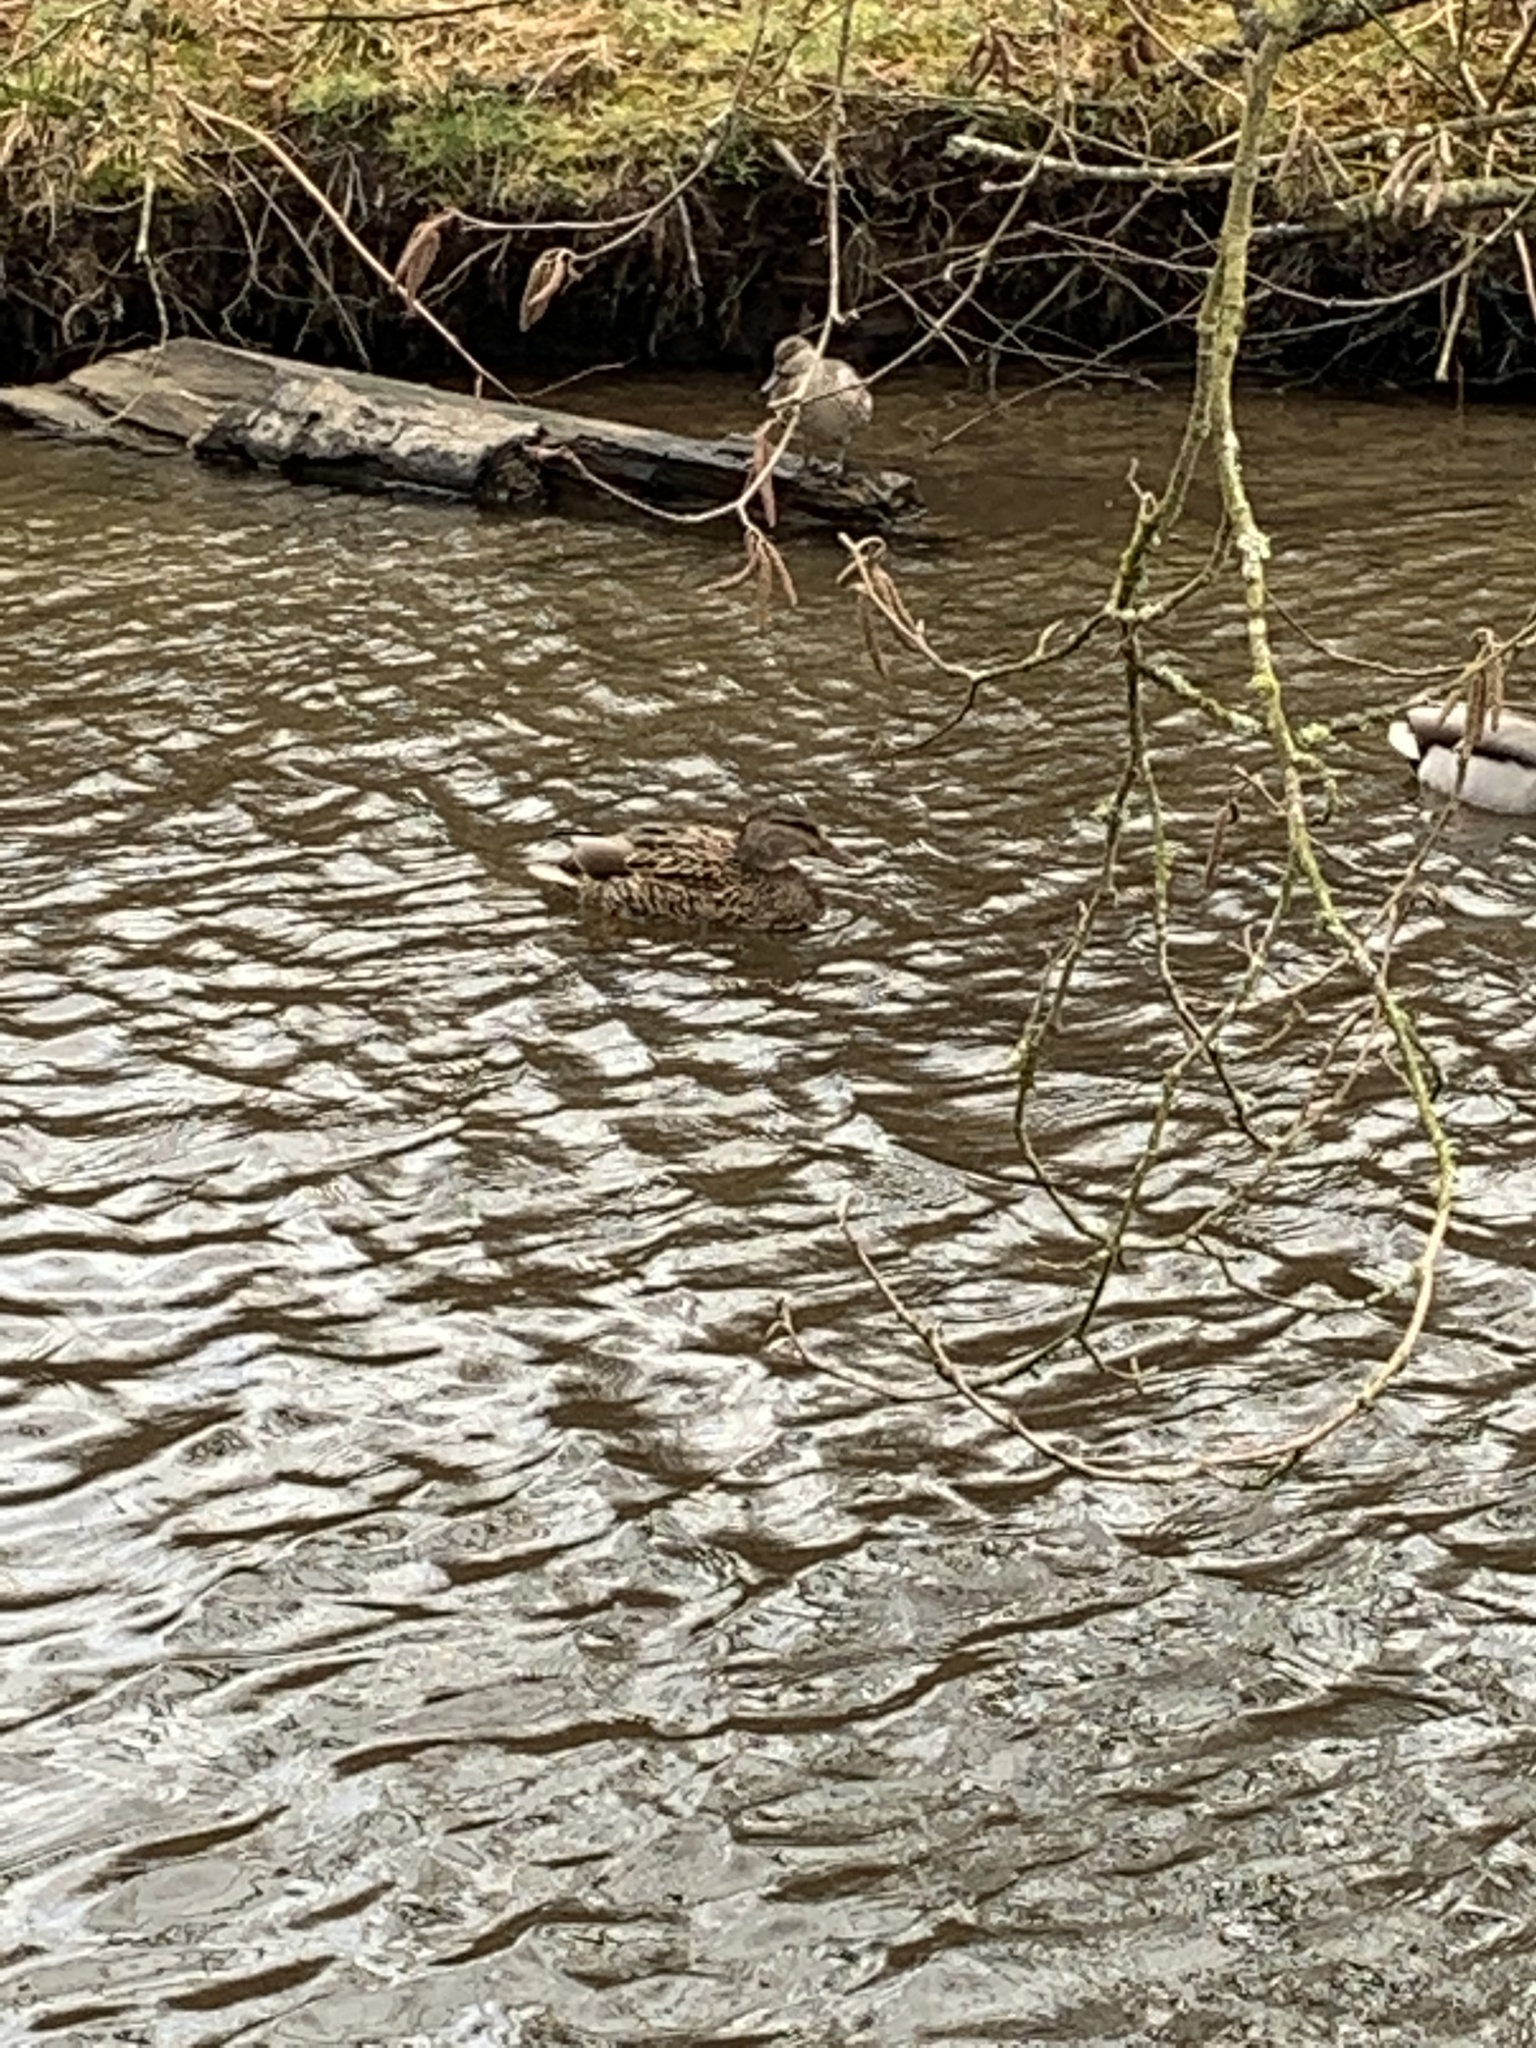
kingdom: Animalia
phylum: Chordata
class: Aves
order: Anseriformes
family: Anatidae
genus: Anas
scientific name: Anas platyrhynchos
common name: Mallard
